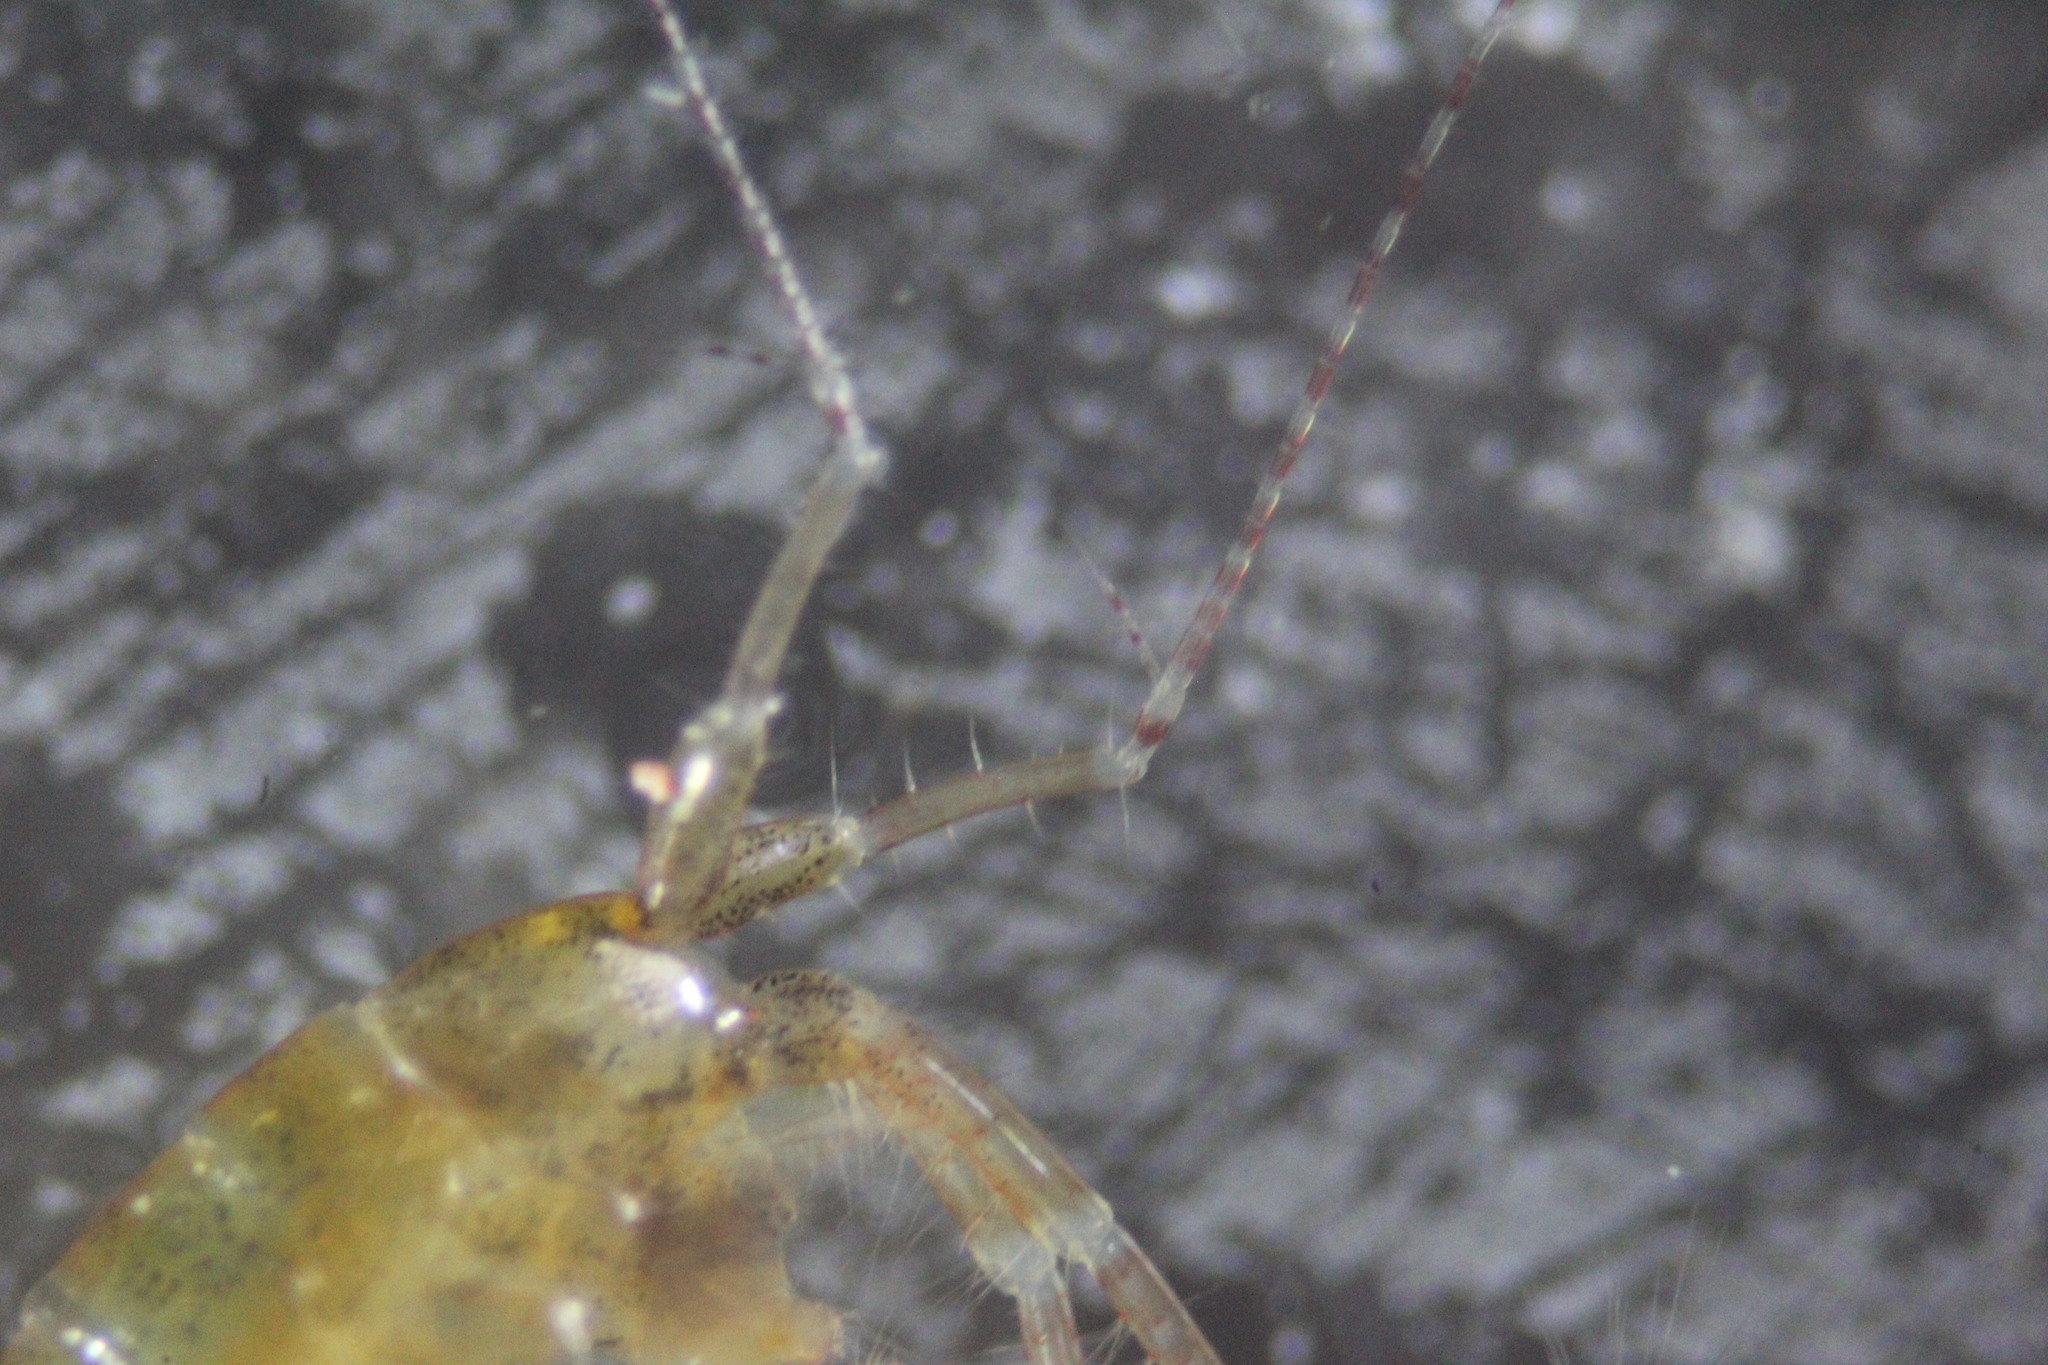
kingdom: Animalia
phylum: Arthropoda
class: Malacostraca
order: Amphipoda
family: Aoridae
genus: Aora
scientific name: Aora typica
